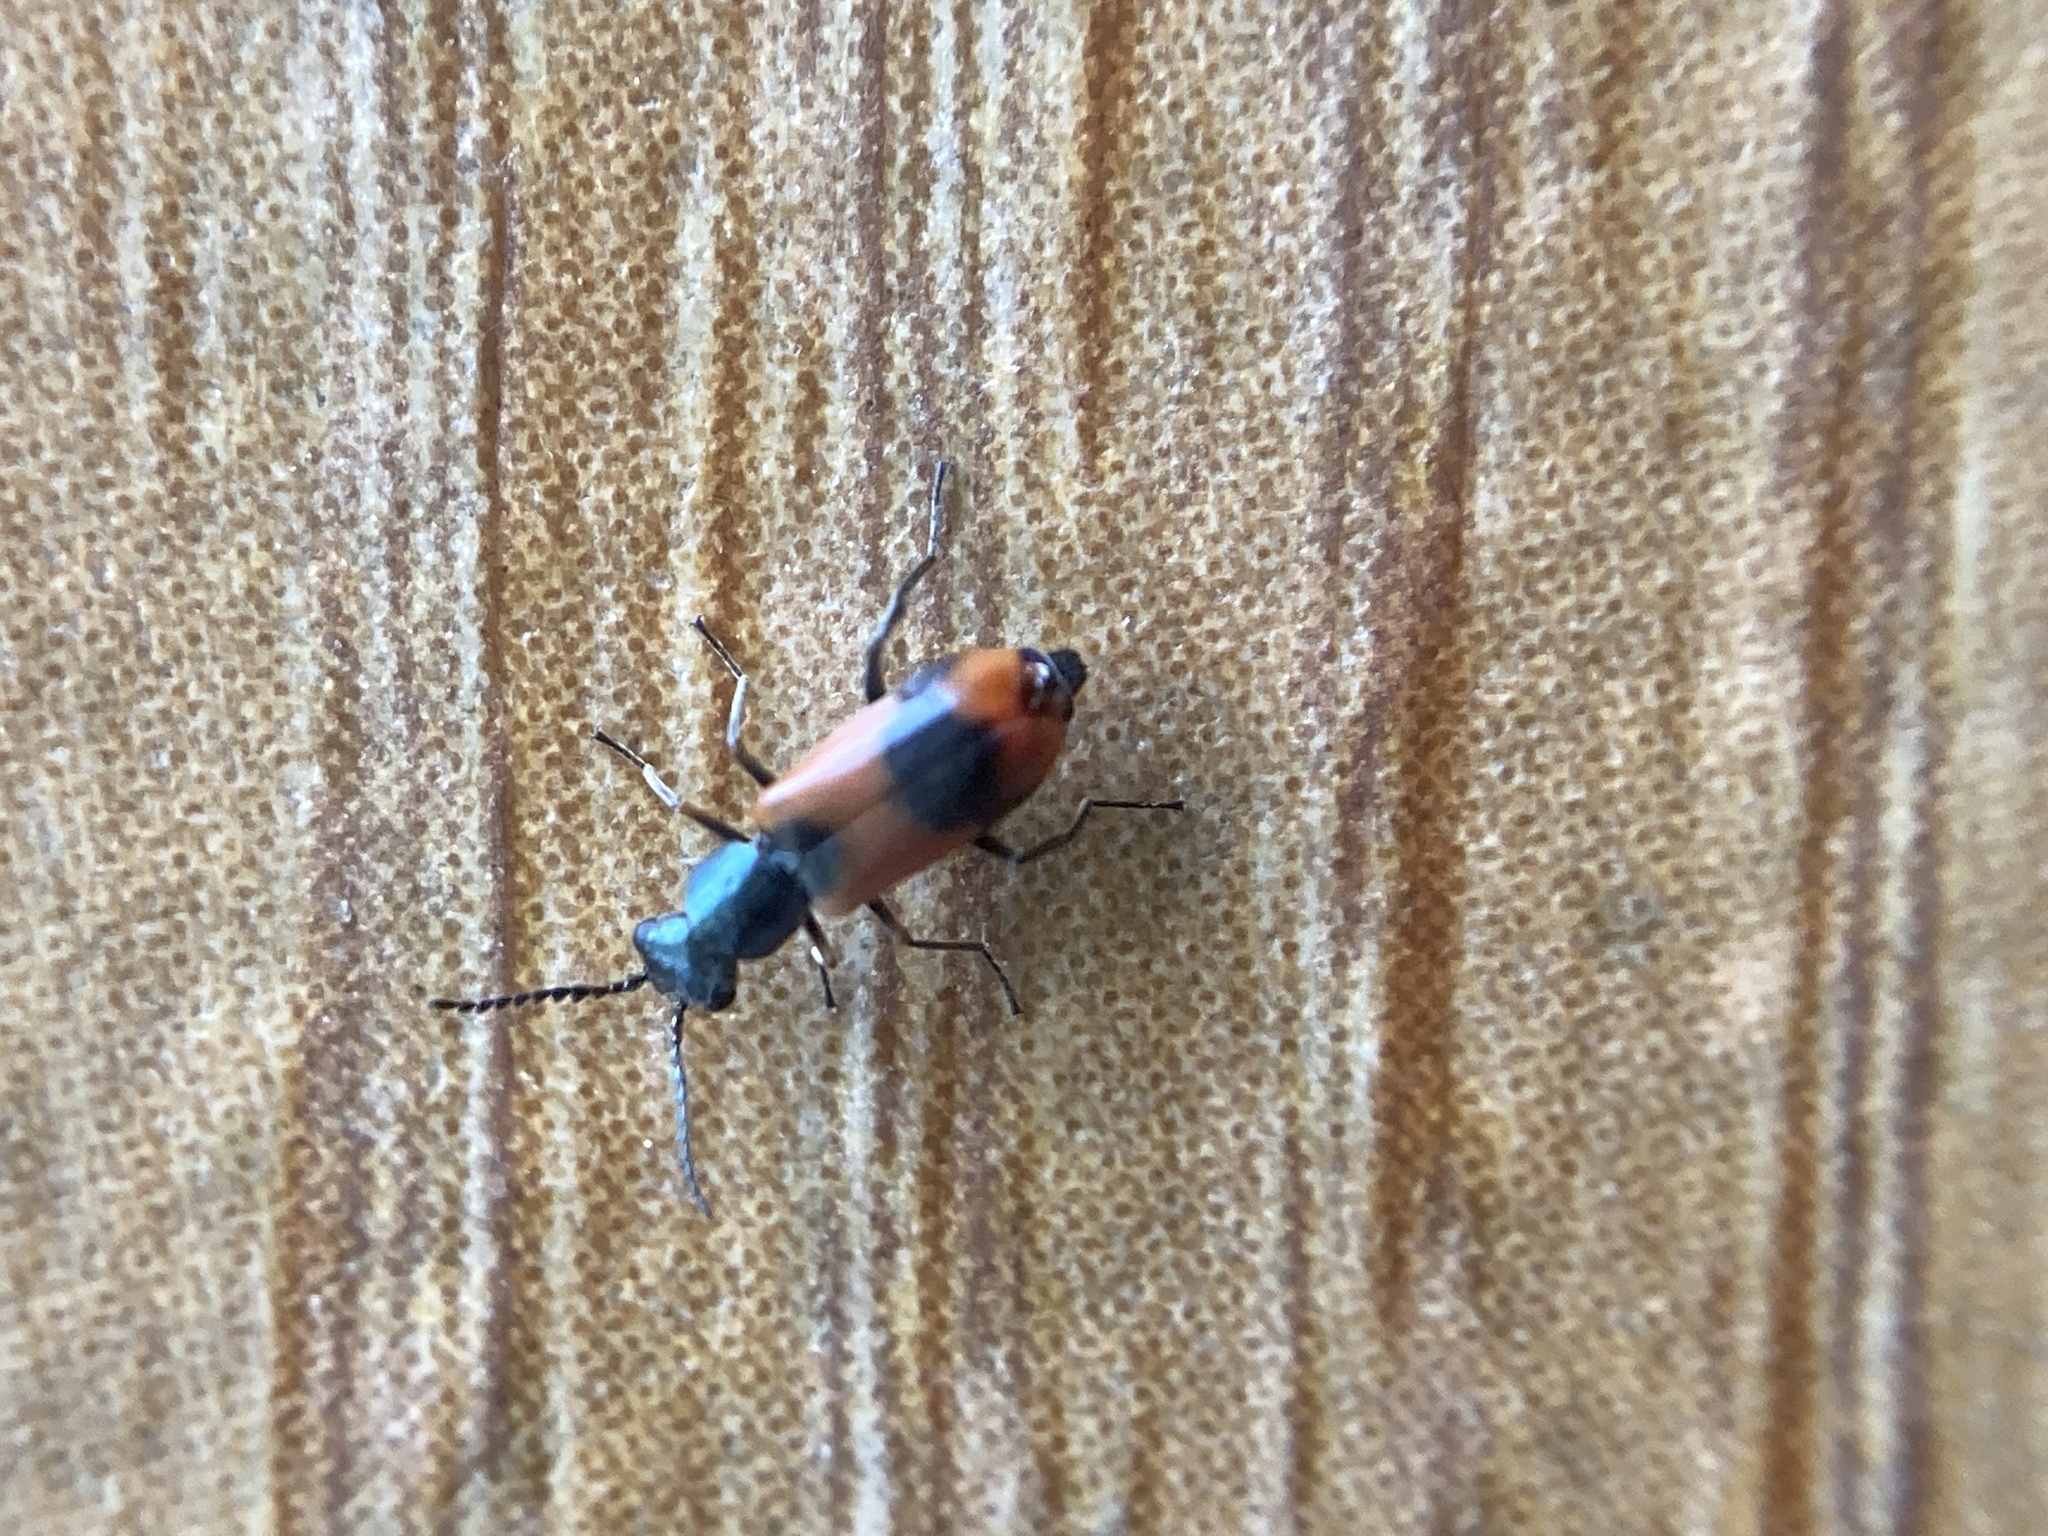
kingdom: Animalia
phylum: Arthropoda
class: Insecta
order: Coleoptera
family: Melyridae
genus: Anthocomus
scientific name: Anthocomus equestris
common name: Black-banded soft-winged flower beetle
